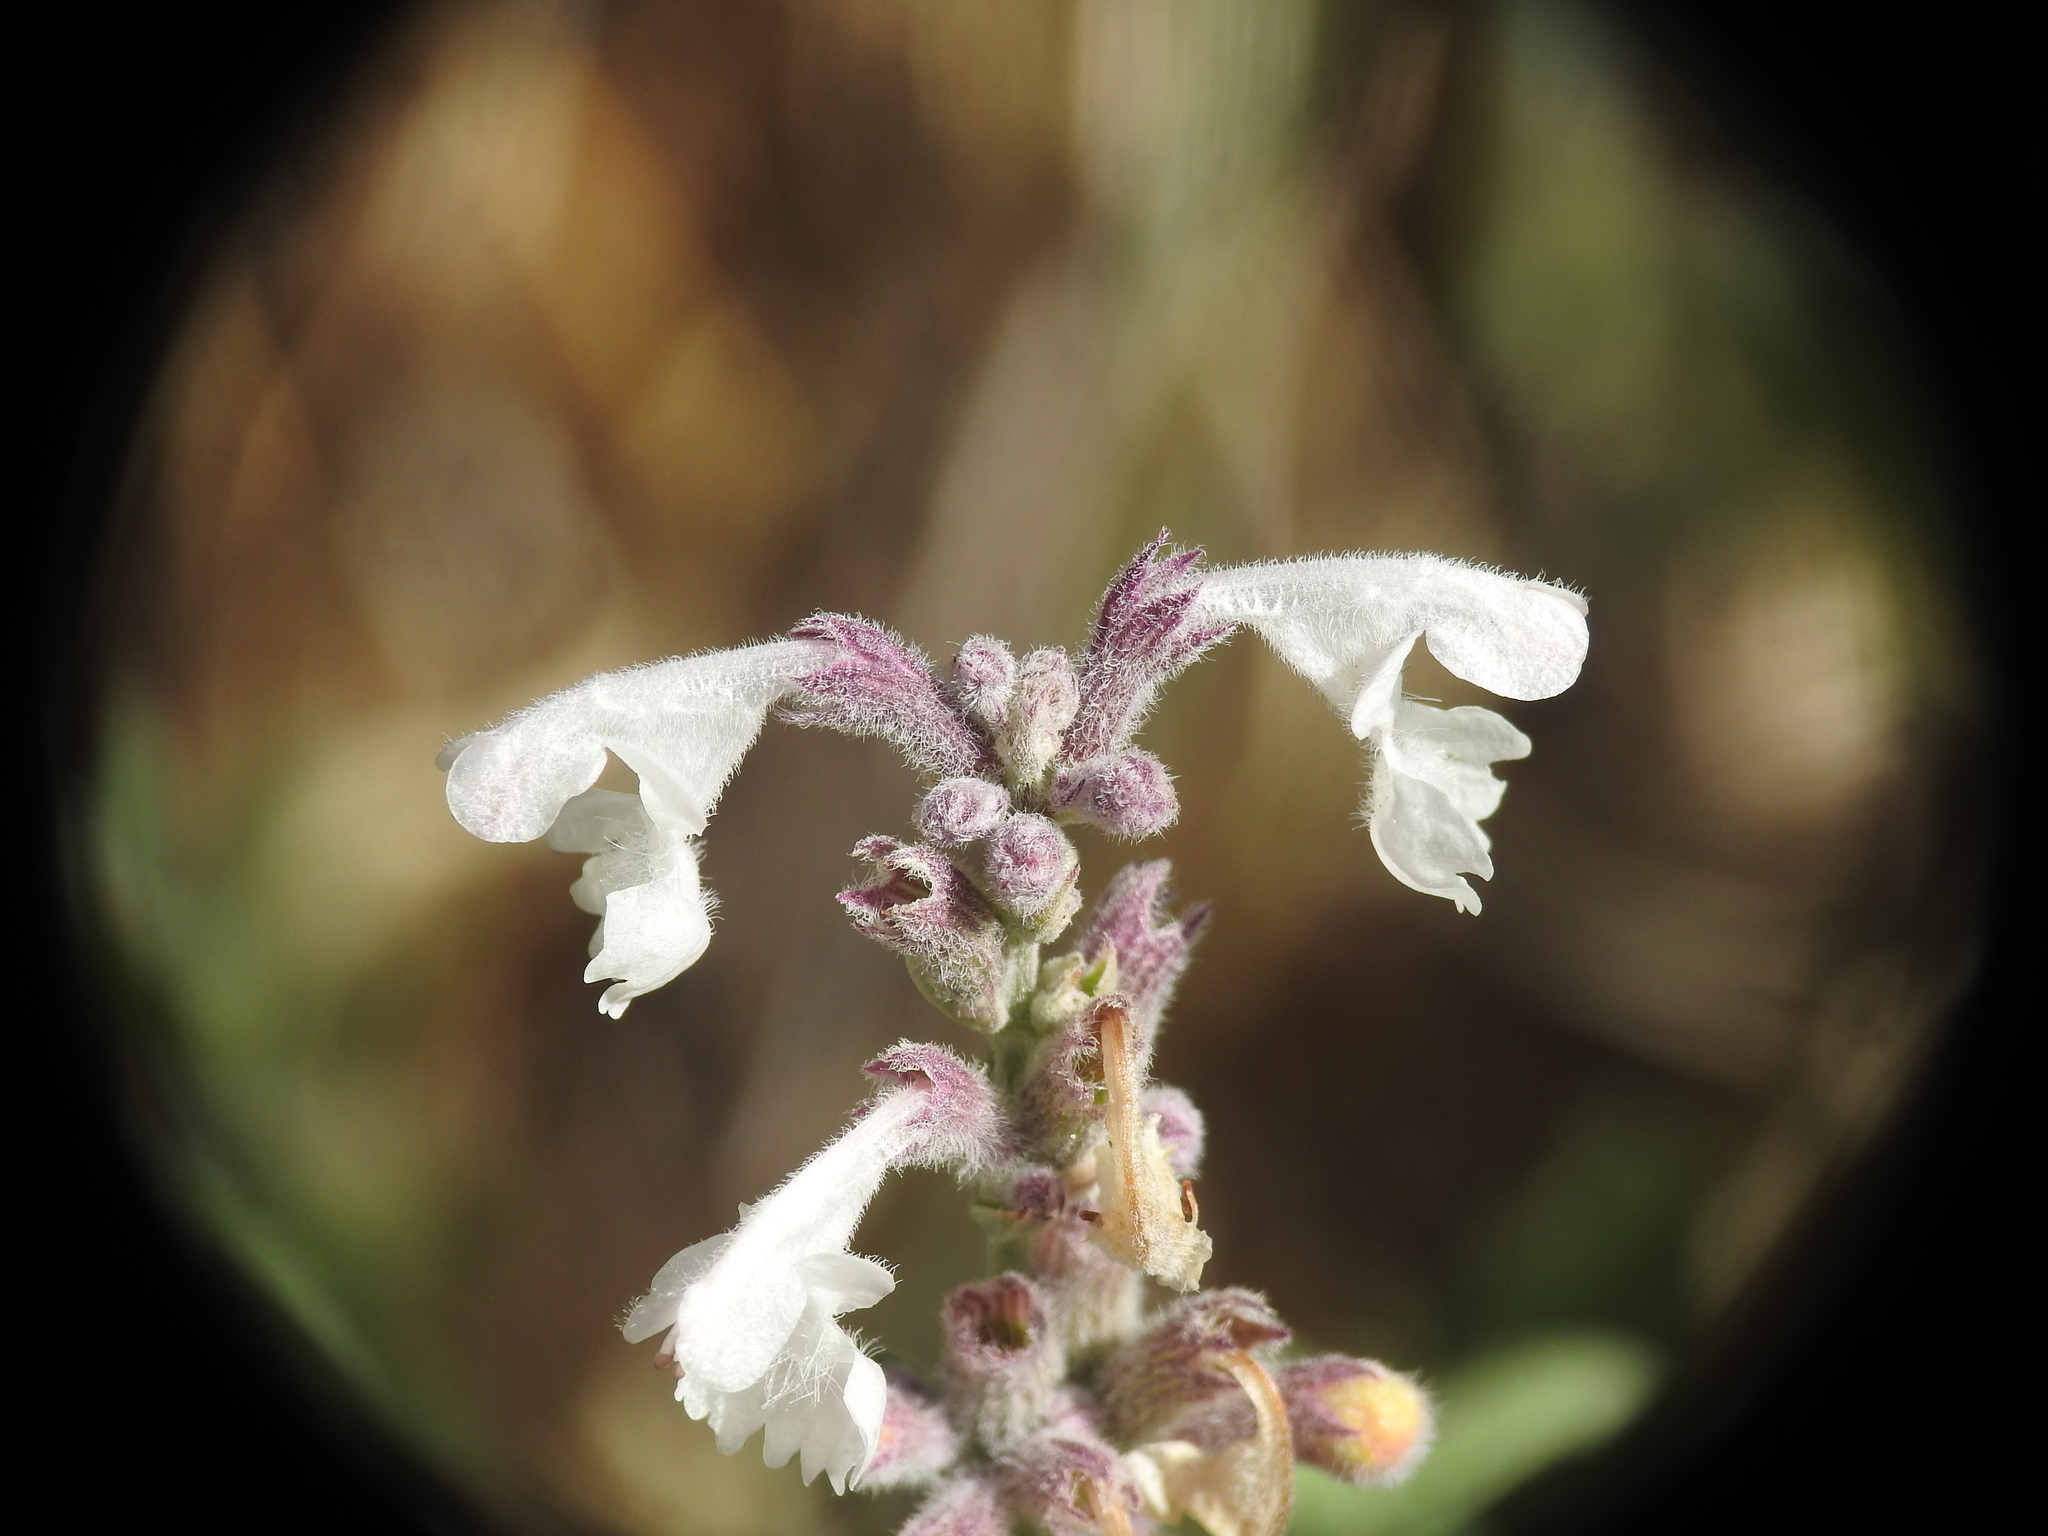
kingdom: Plantae
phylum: Tracheophyta
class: Magnoliopsida
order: Lamiales
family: Lamiaceae
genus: Nepeta
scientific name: Nepeta nepetella
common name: Lesser catmint
